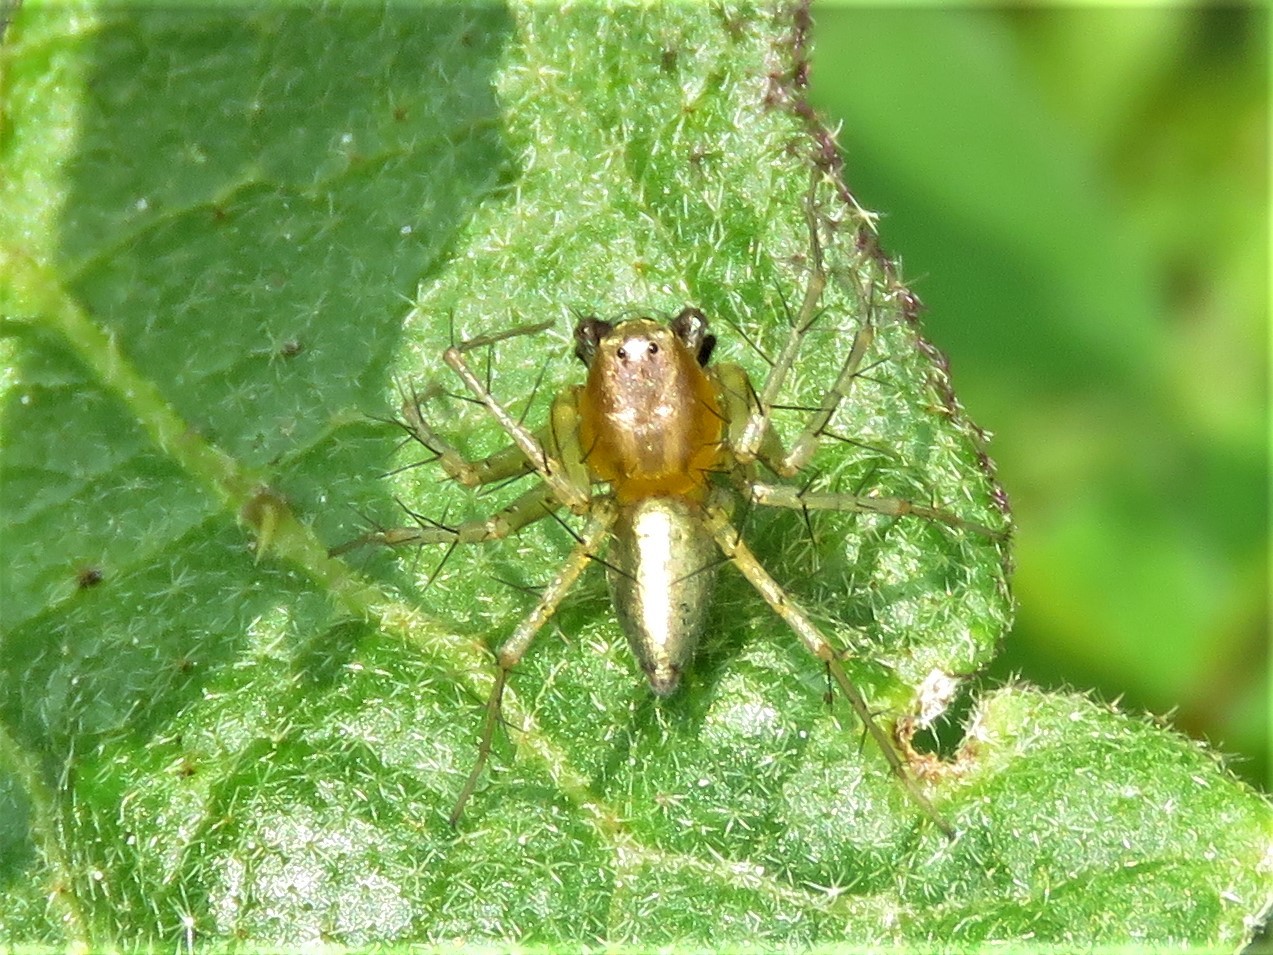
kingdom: Animalia
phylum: Arthropoda
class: Arachnida
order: Araneae
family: Oxyopidae
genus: Oxyopes
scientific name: Oxyopes salticus
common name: Lynx spiders
